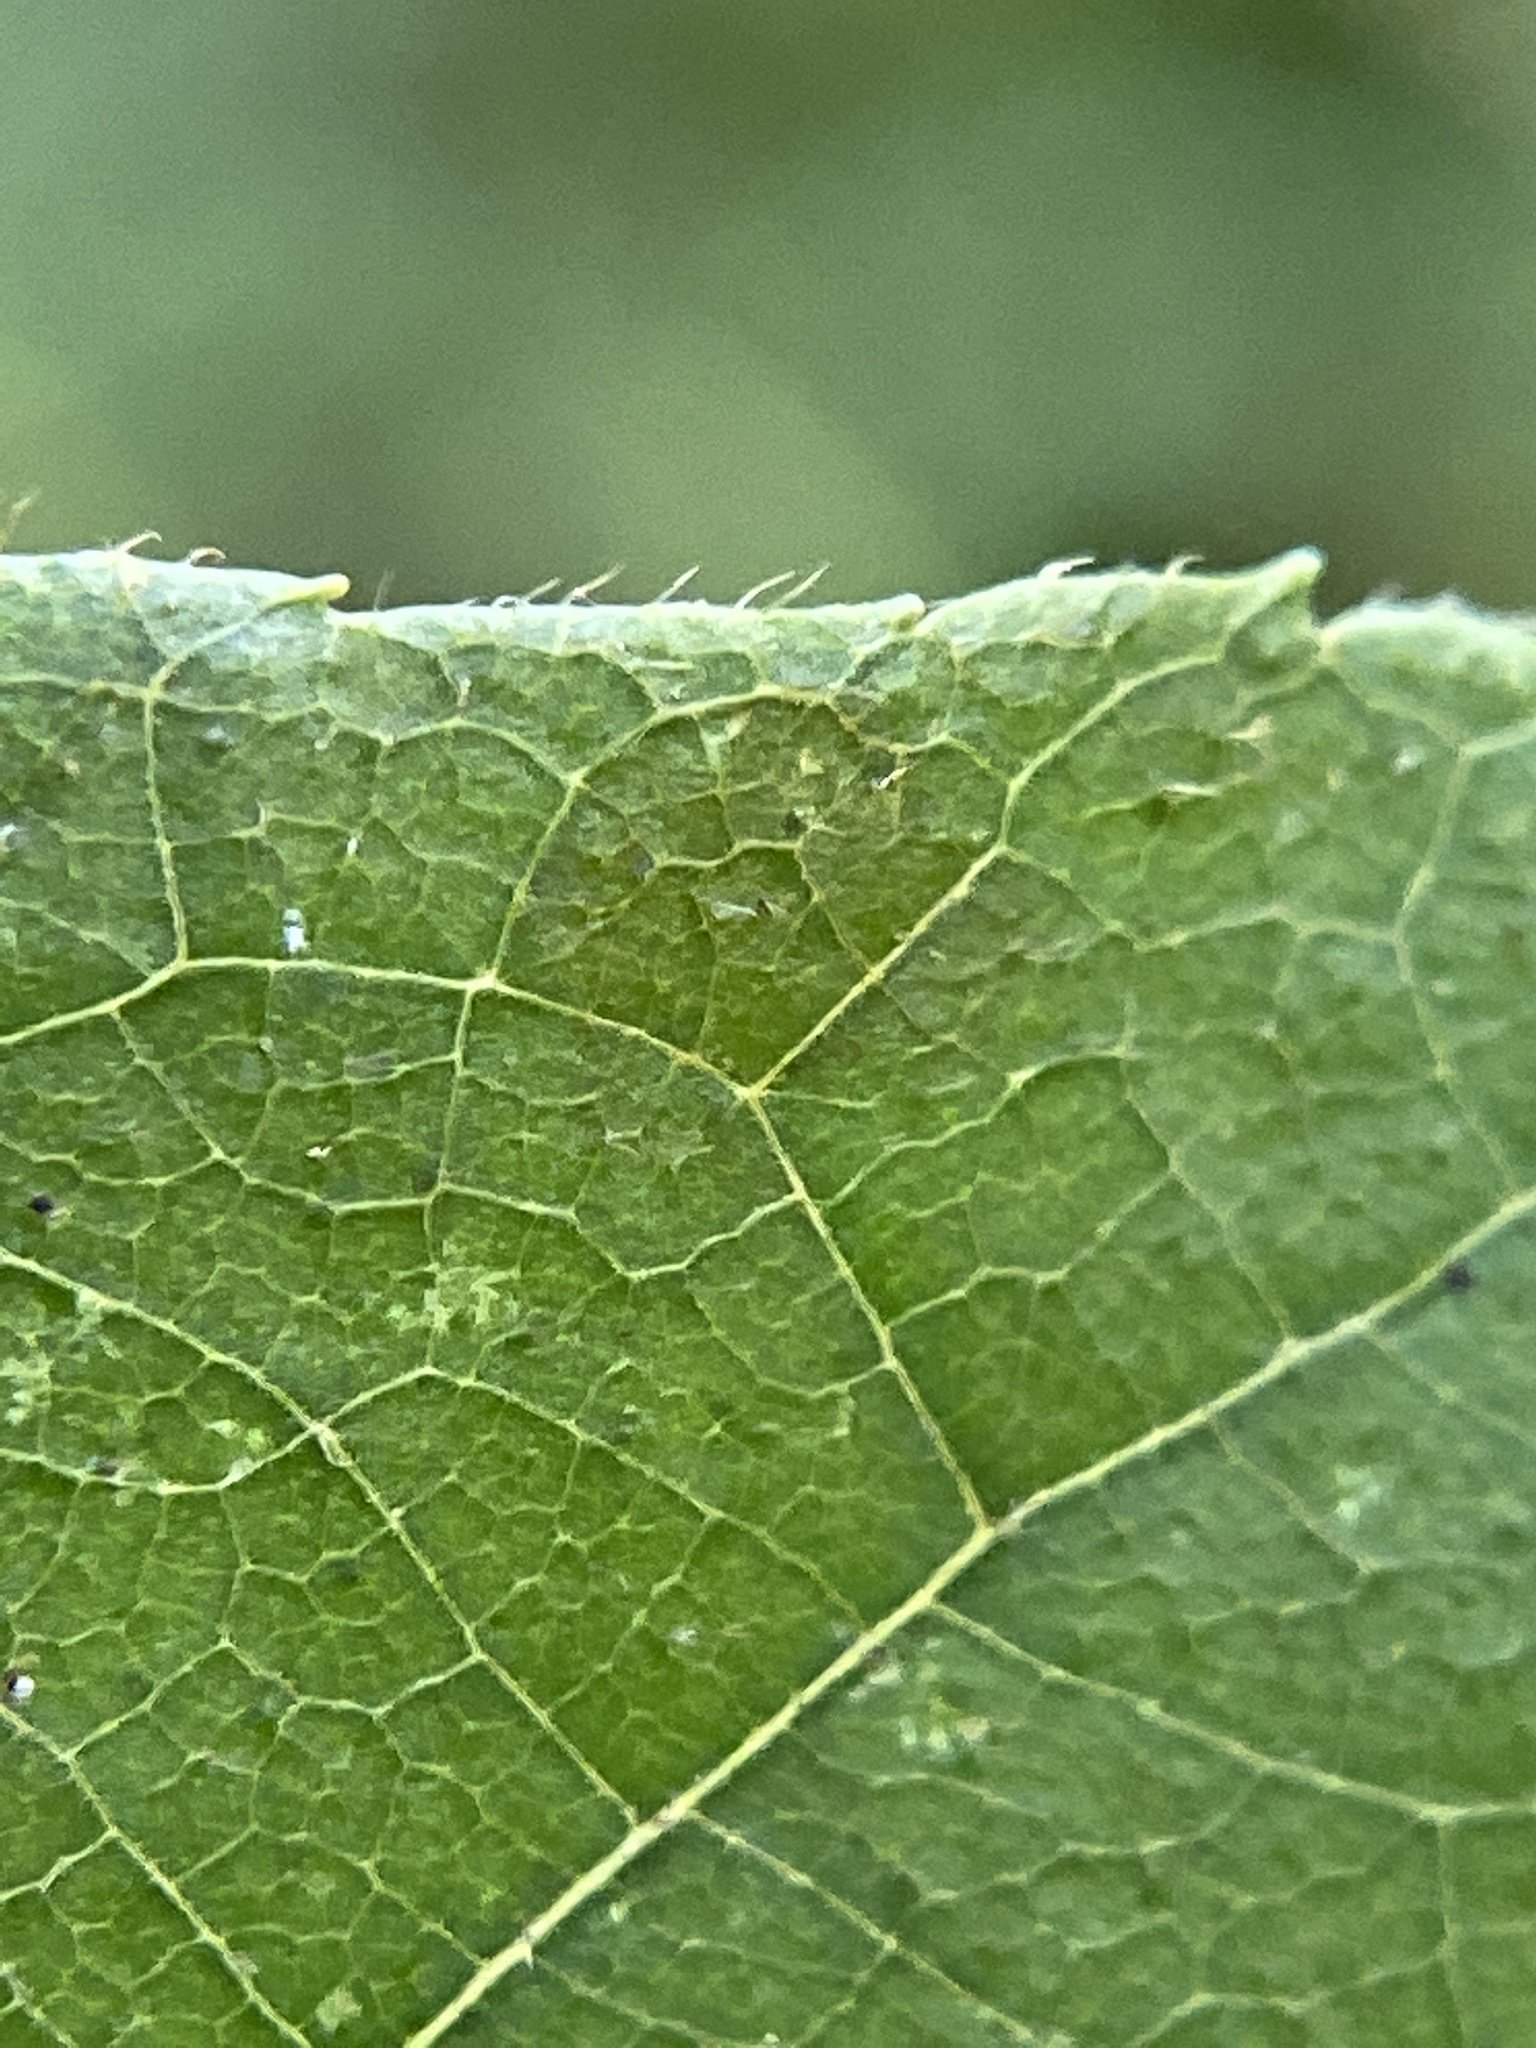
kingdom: Animalia
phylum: Arthropoda
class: Insecta
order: Diptera
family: Cecidomyiidae
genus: Caryomyia
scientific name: Caryomyia cilidolium
